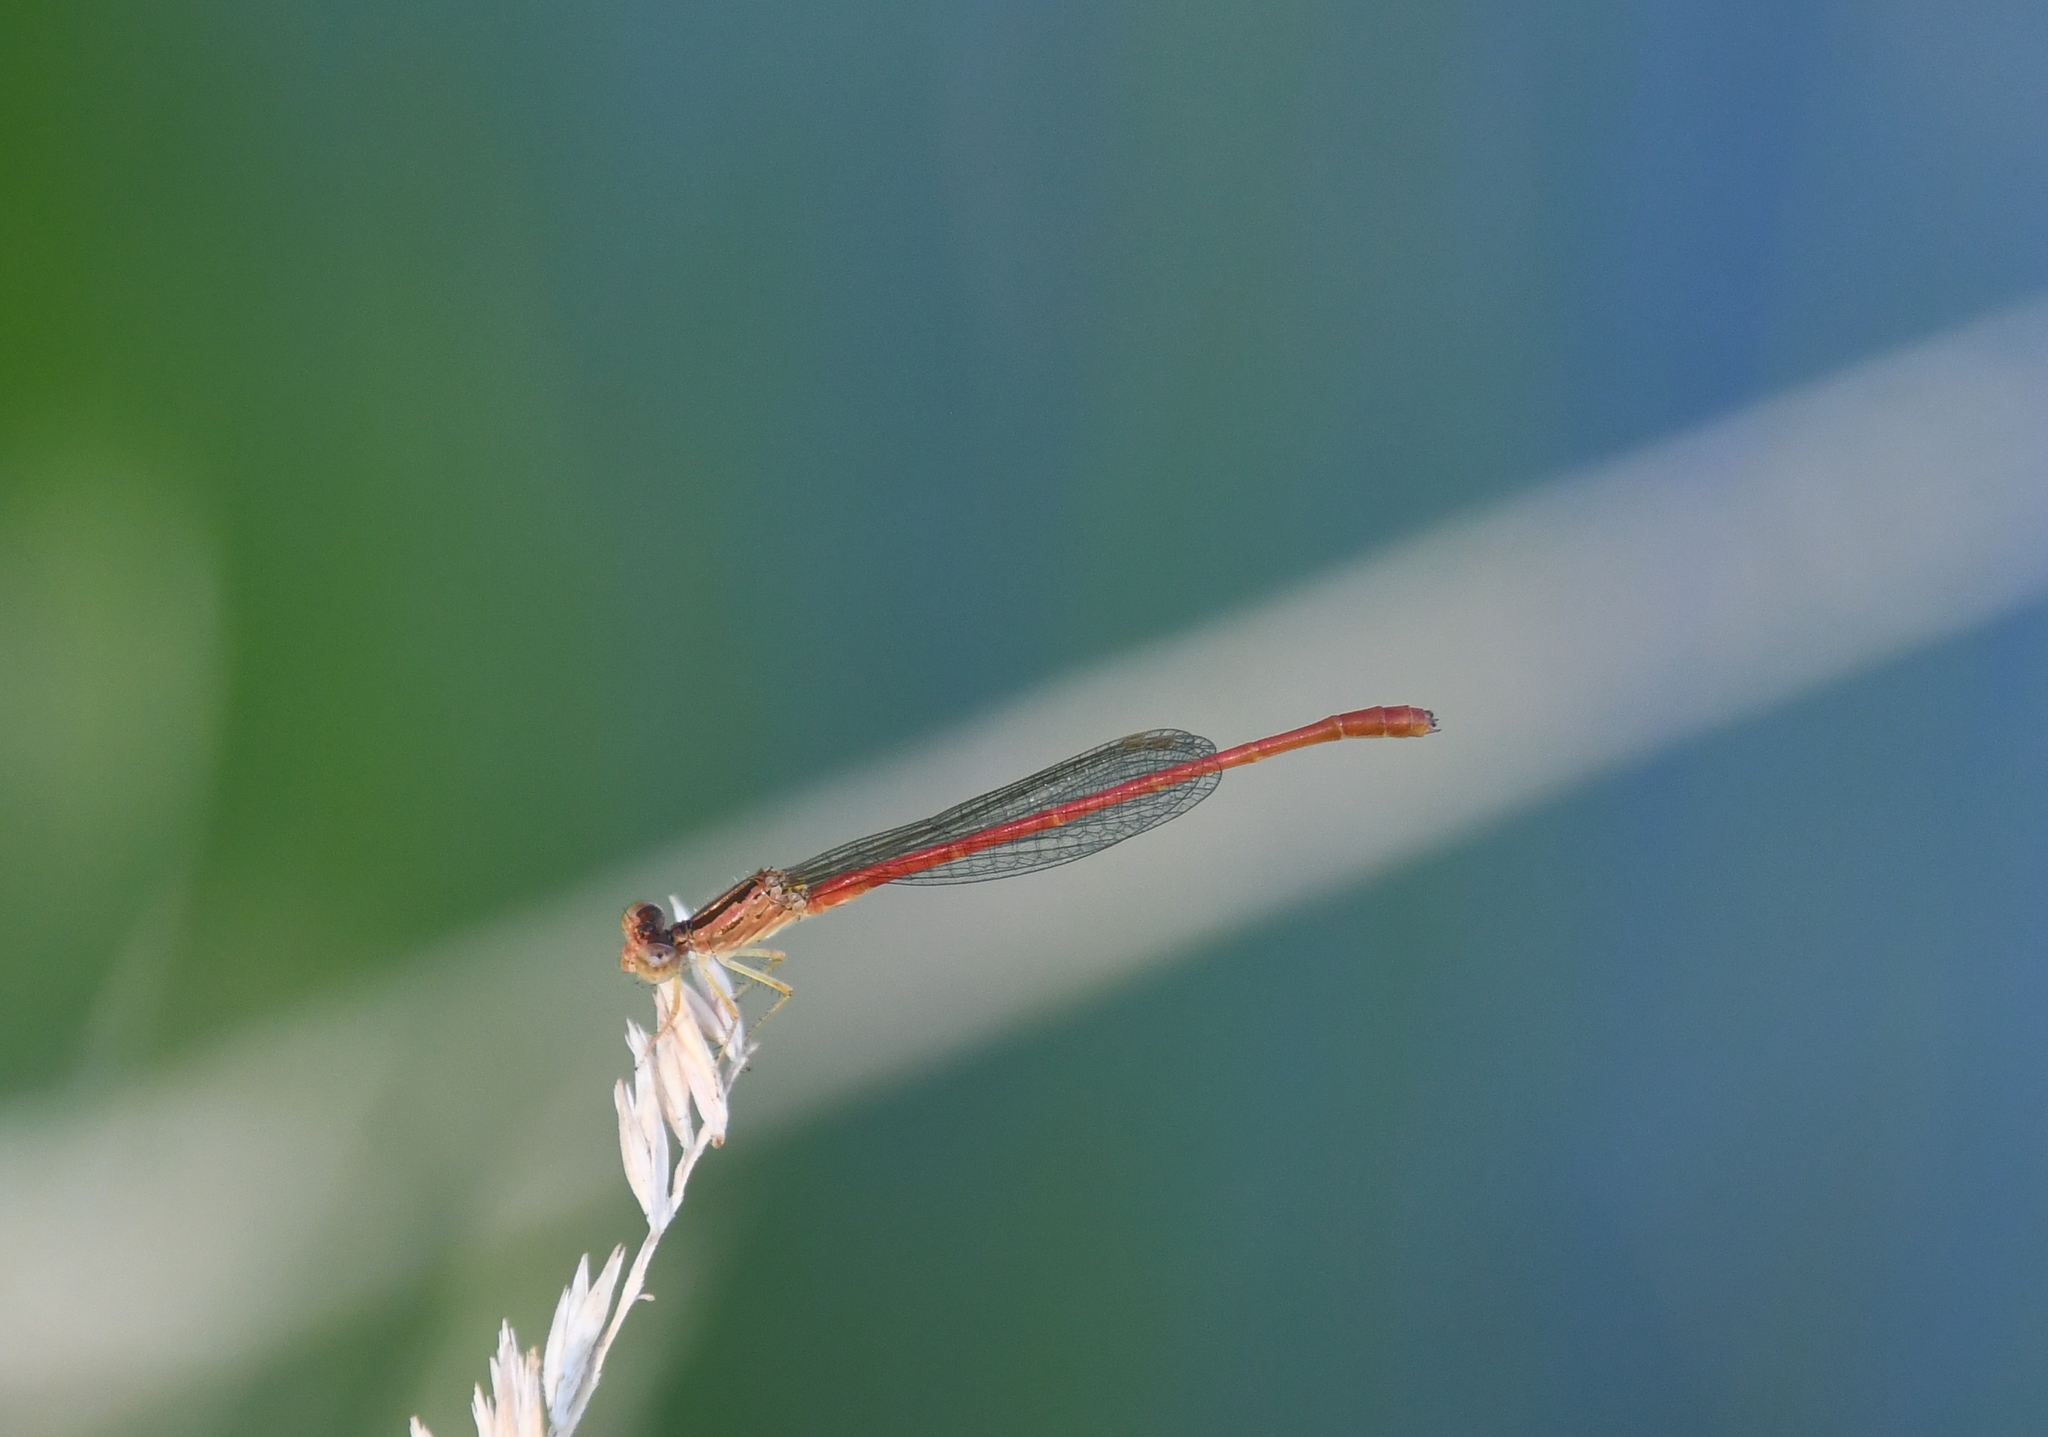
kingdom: Animalia
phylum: Arthropoda
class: Insecta
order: Odonata
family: Coenagrionidae
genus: Telebasis
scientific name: Telebasis salva
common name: Desert firetail
